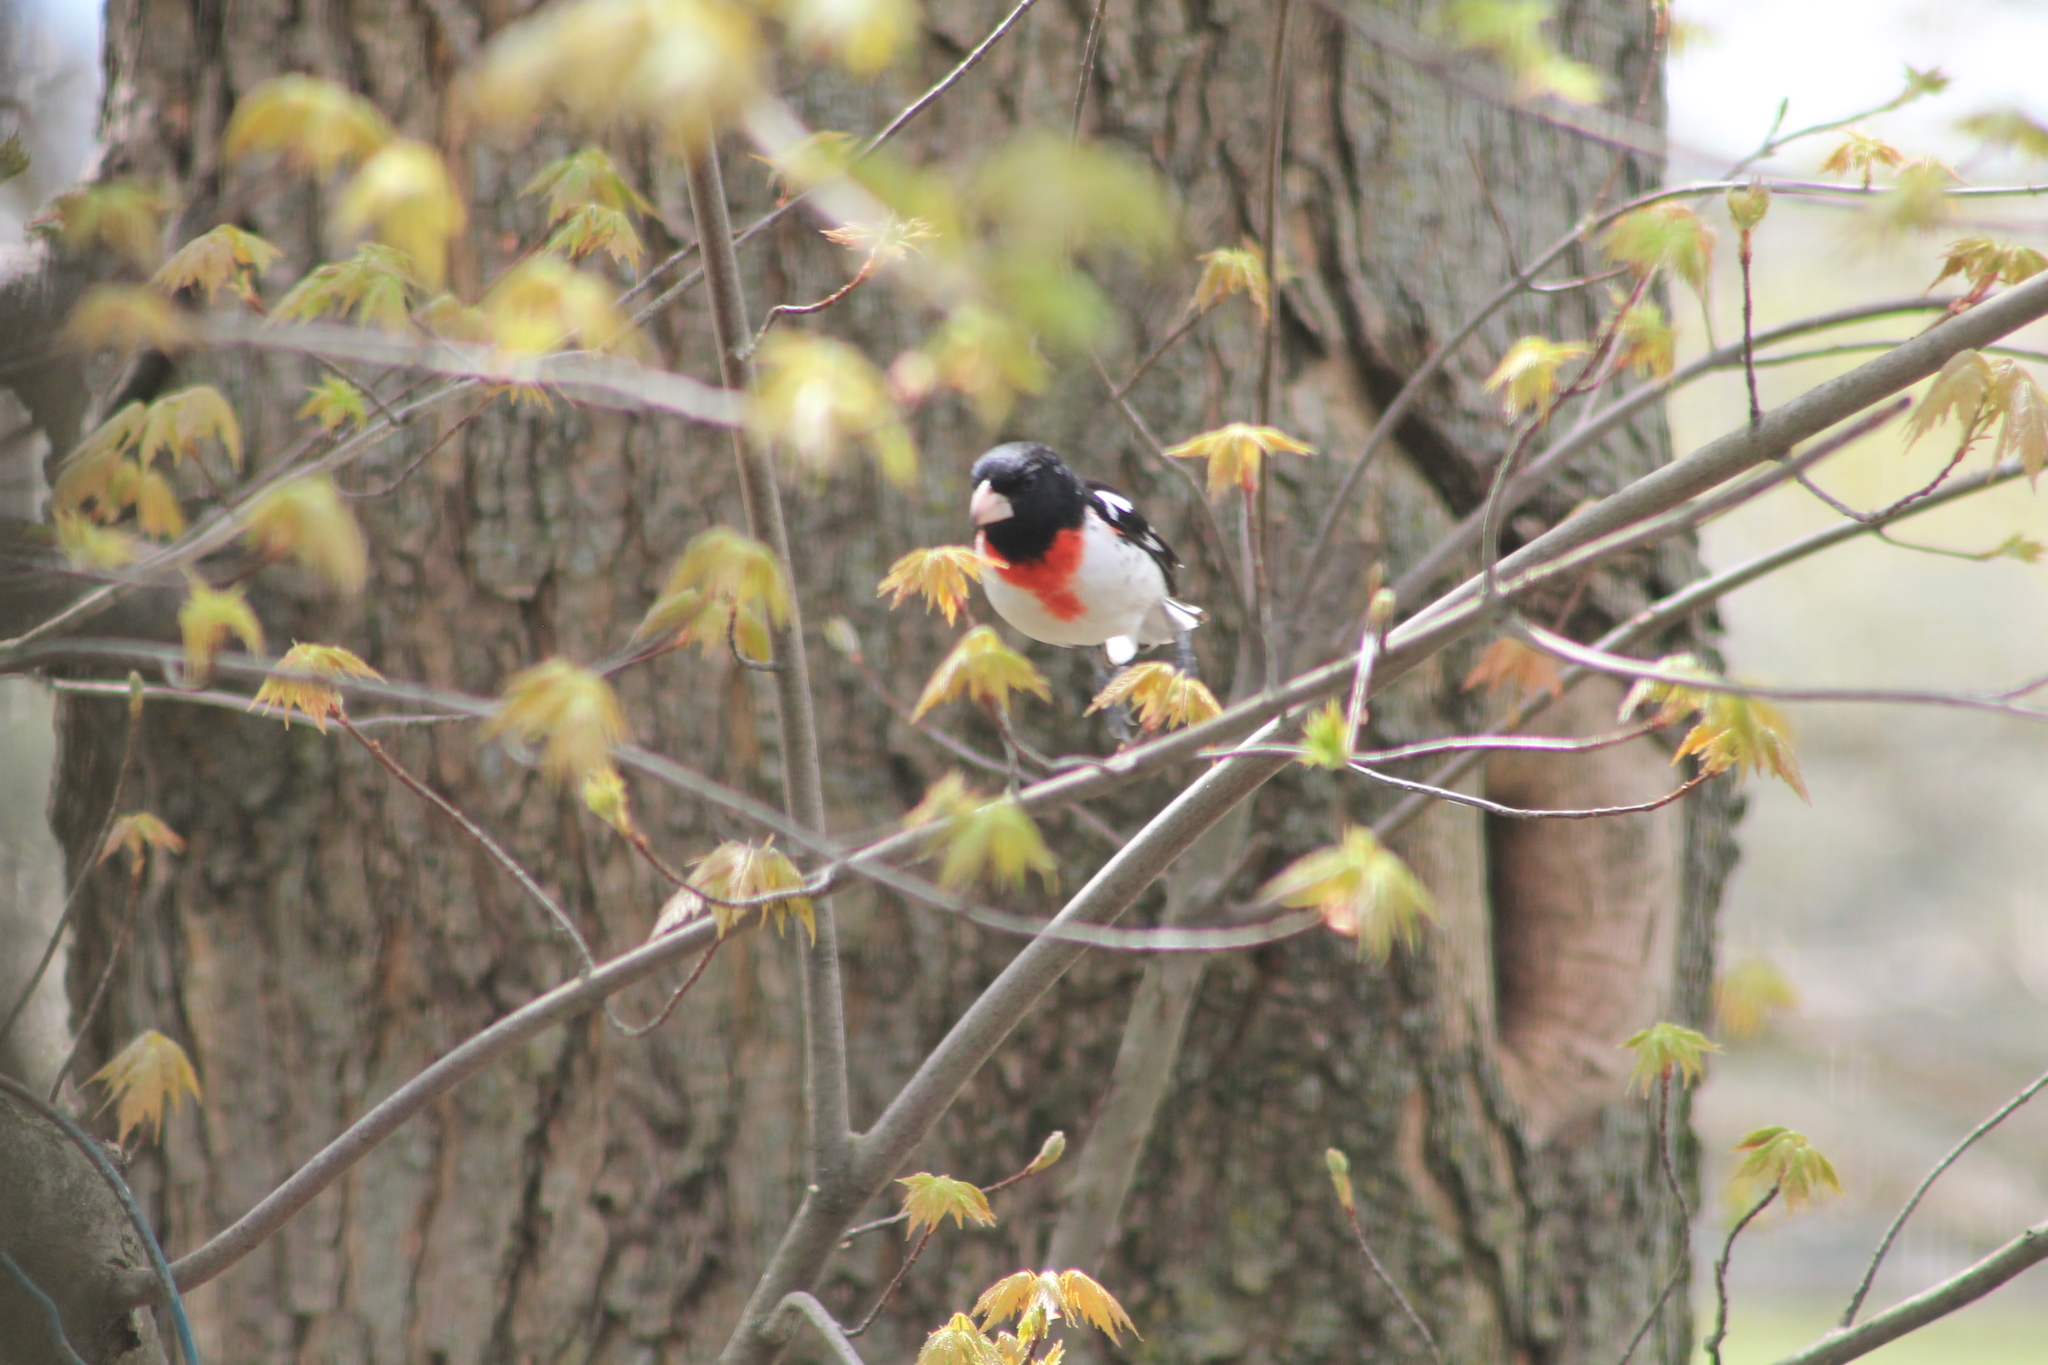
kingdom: Animalia
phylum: Chordata
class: Aves
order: Passeriformes
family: Cardinalidae
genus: Pheucticus
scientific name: Pheucticus ludovicianus
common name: Rose-breasted grosbeak
